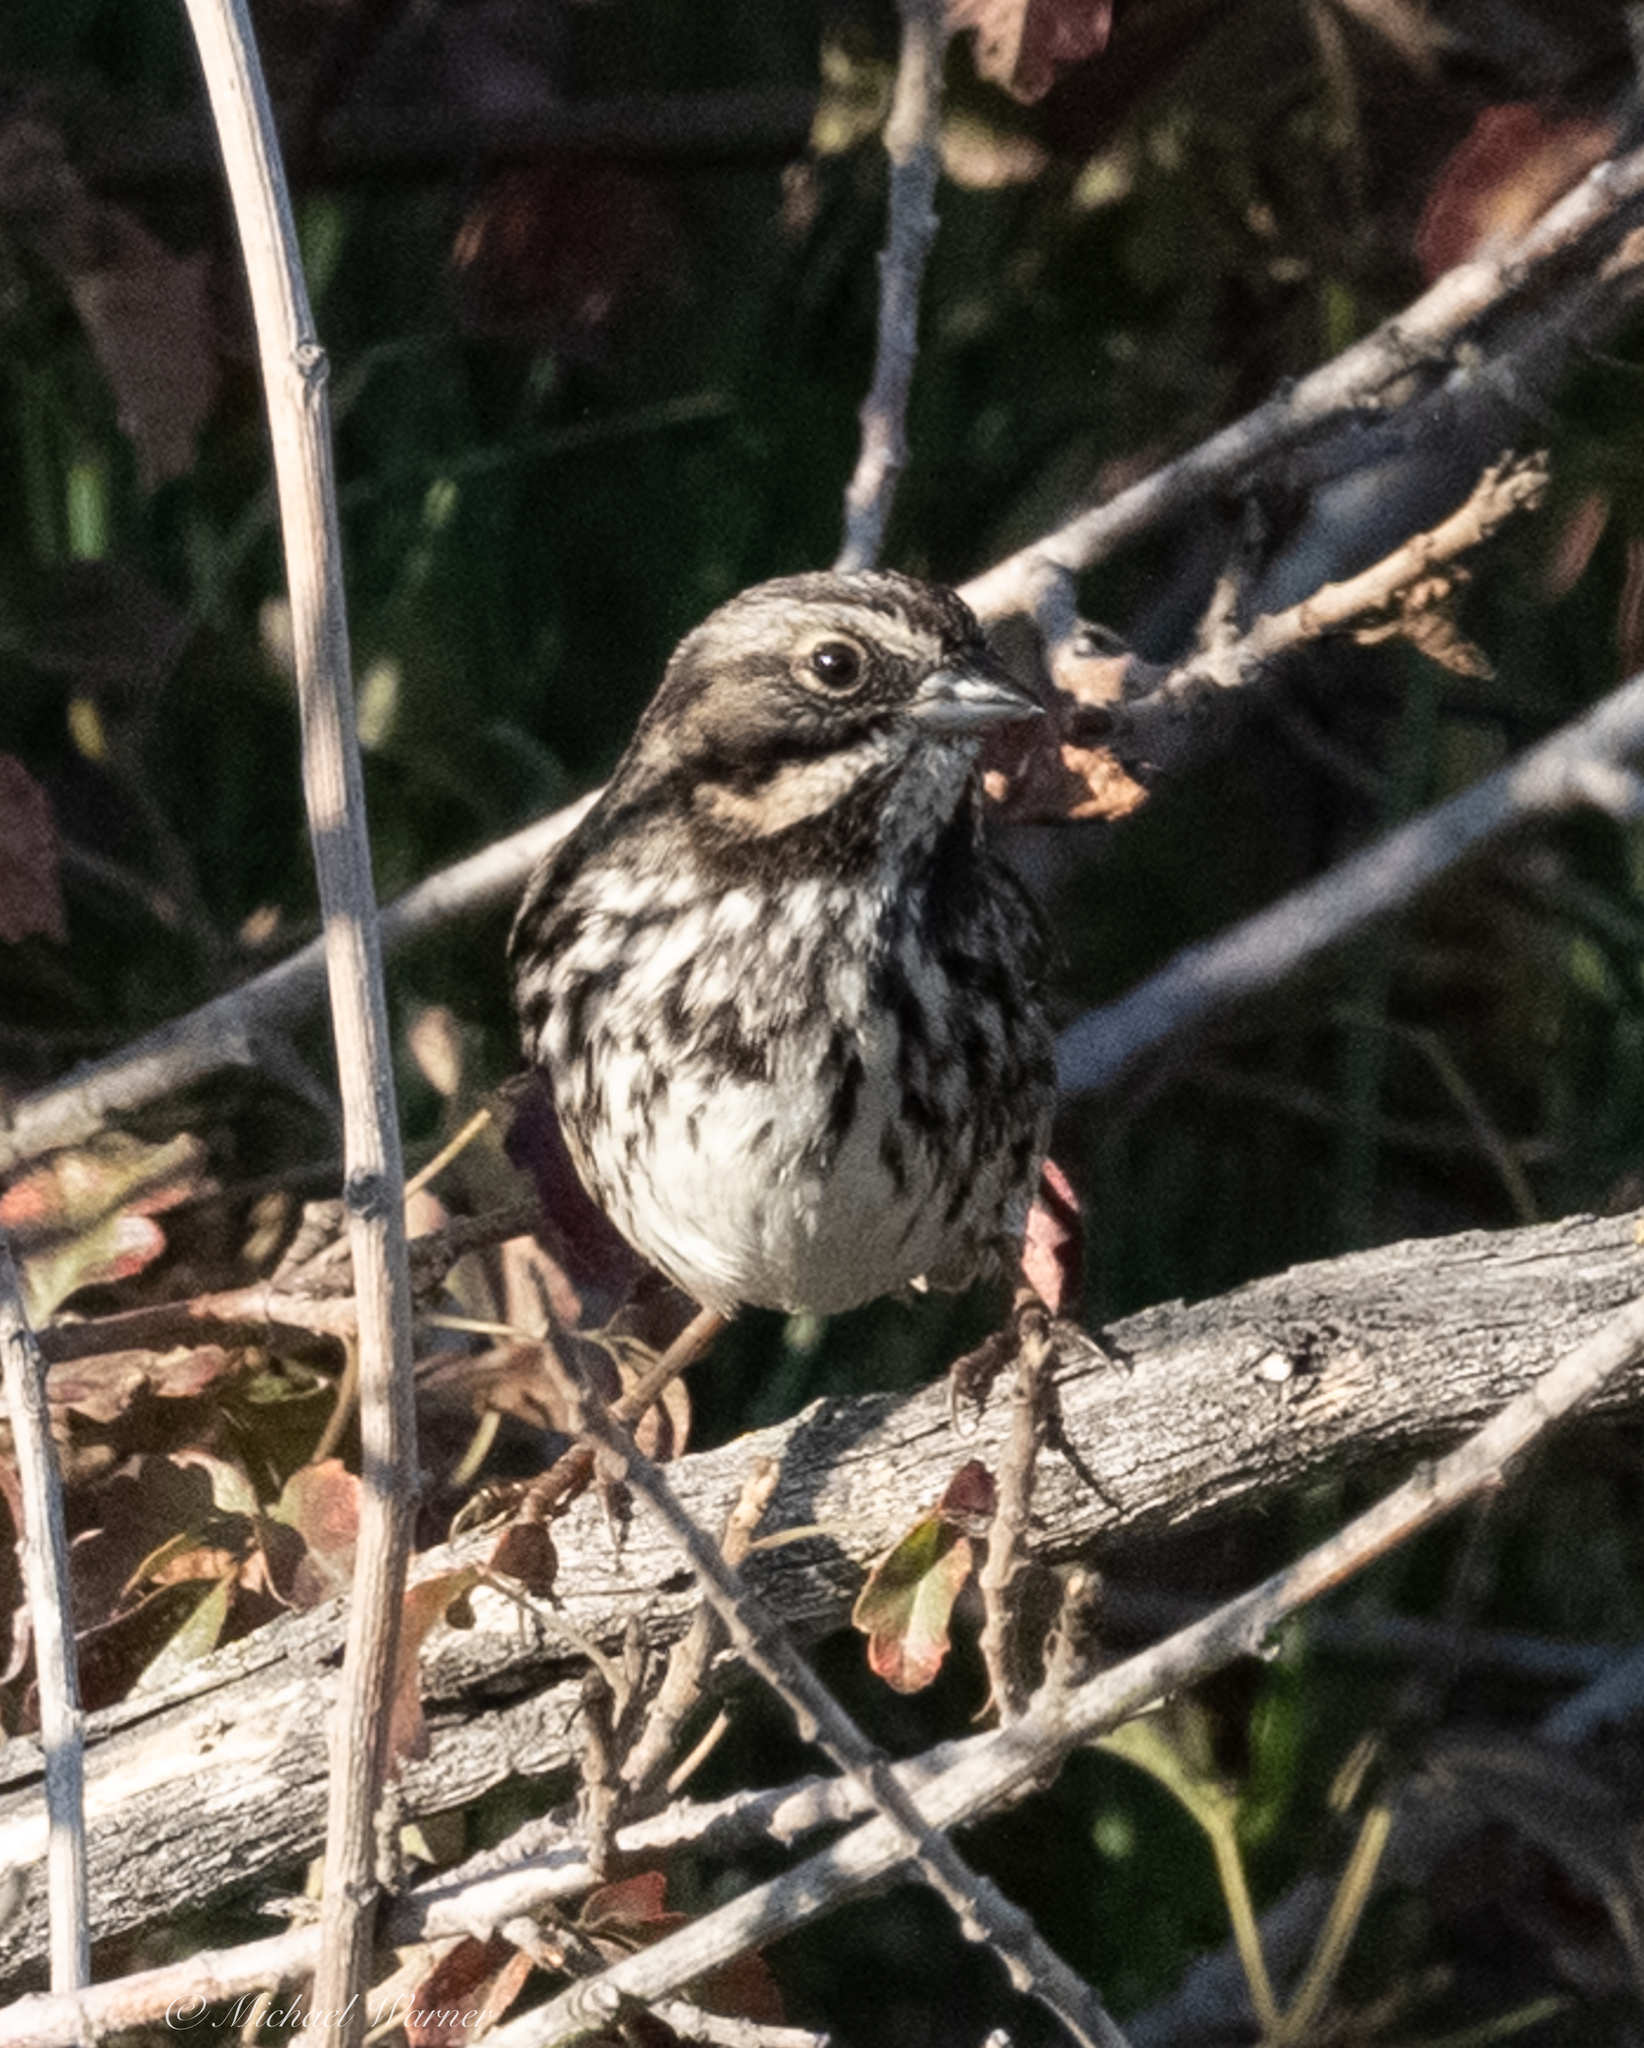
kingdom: Animalia
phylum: Chordata
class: Aves
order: Passeriformes
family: Passerellidae
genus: Melospiza
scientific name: Melospiza melodia
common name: Song sparrow
